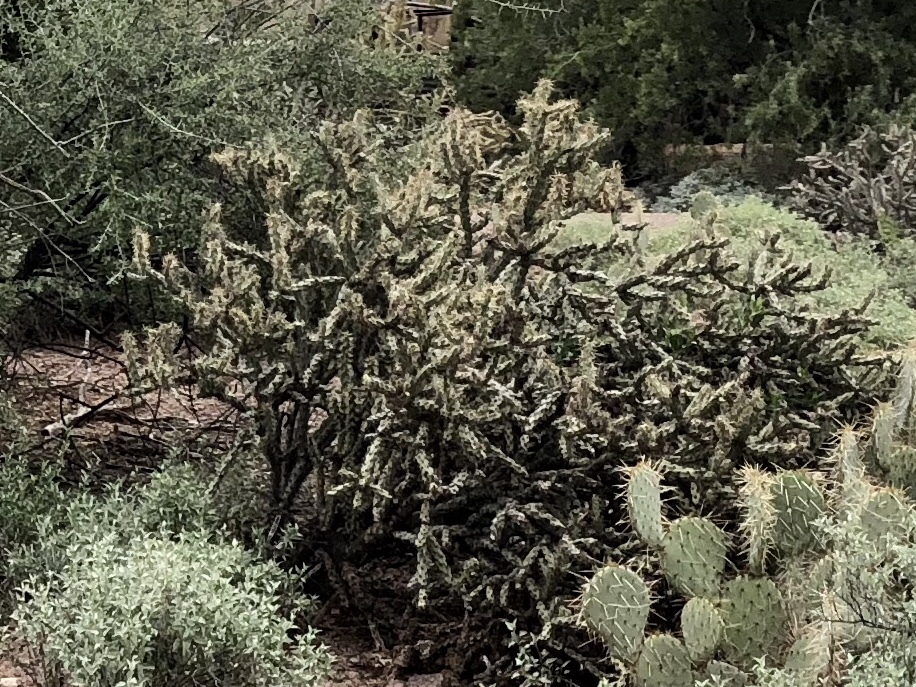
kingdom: Plantae
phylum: Tracheophyta
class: Magnoliopsida
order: Caryophyllales
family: Cactaceae
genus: Cylindropuntia
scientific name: Cylindropuntia acanthocarpa
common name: Buckhorn cholla
